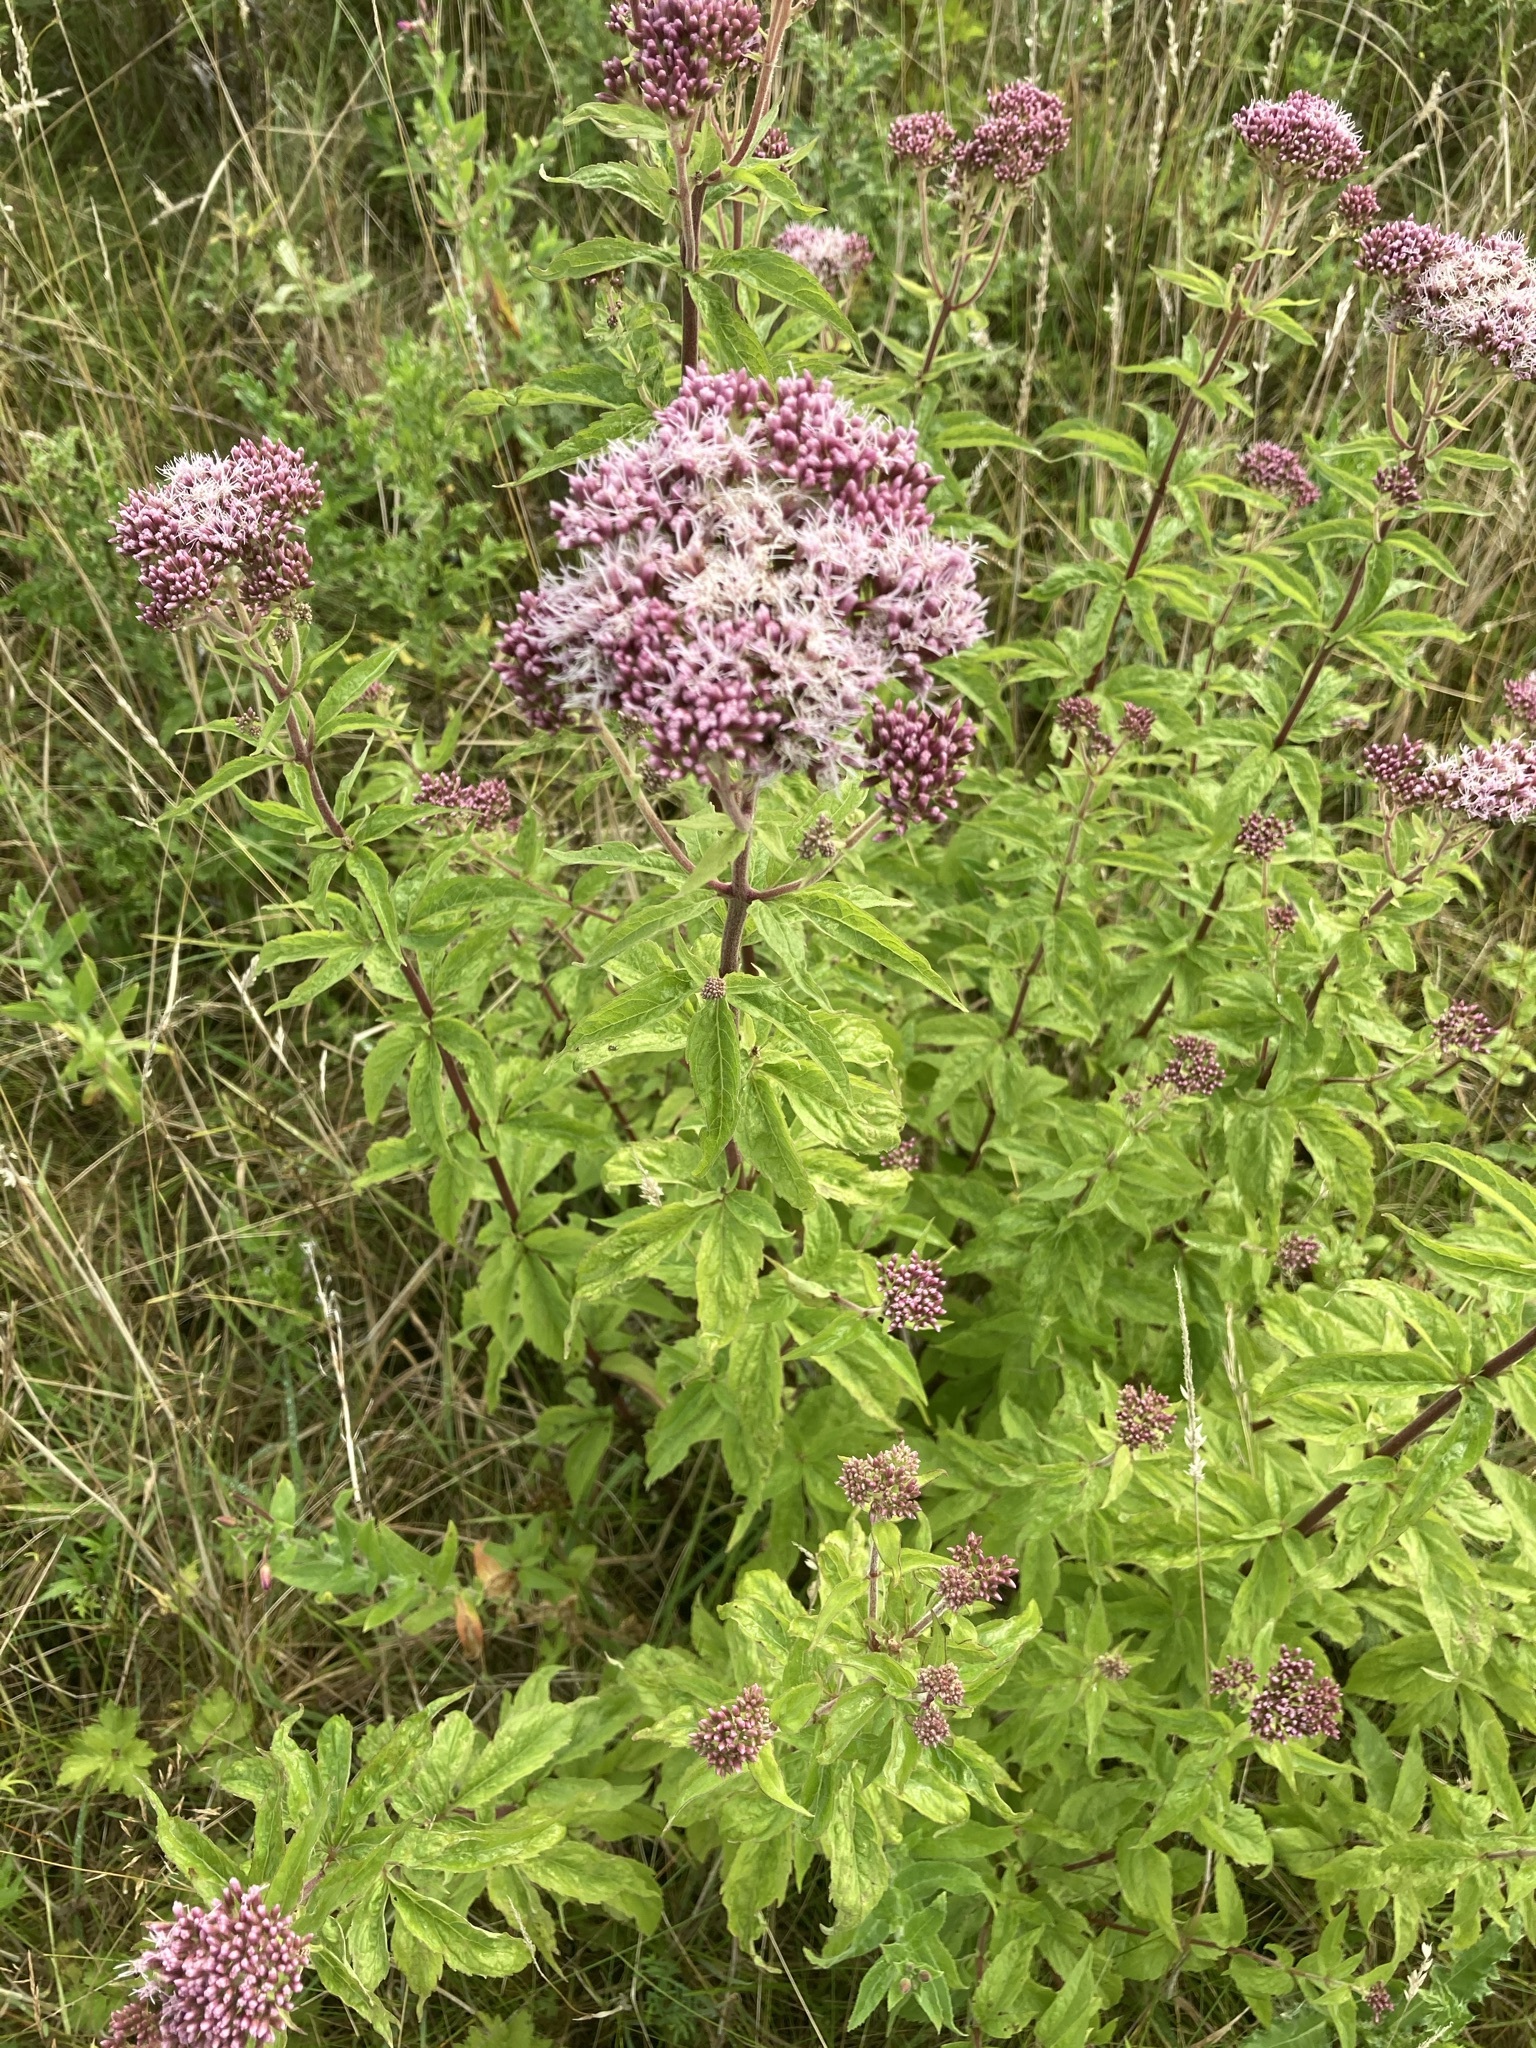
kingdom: Plantae
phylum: Tracheophyta
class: Magnoliopsida
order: Asterales
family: Asteraceae
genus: Eupatorium
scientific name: Eupatorium cannabinum
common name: Hemp-agrimony
